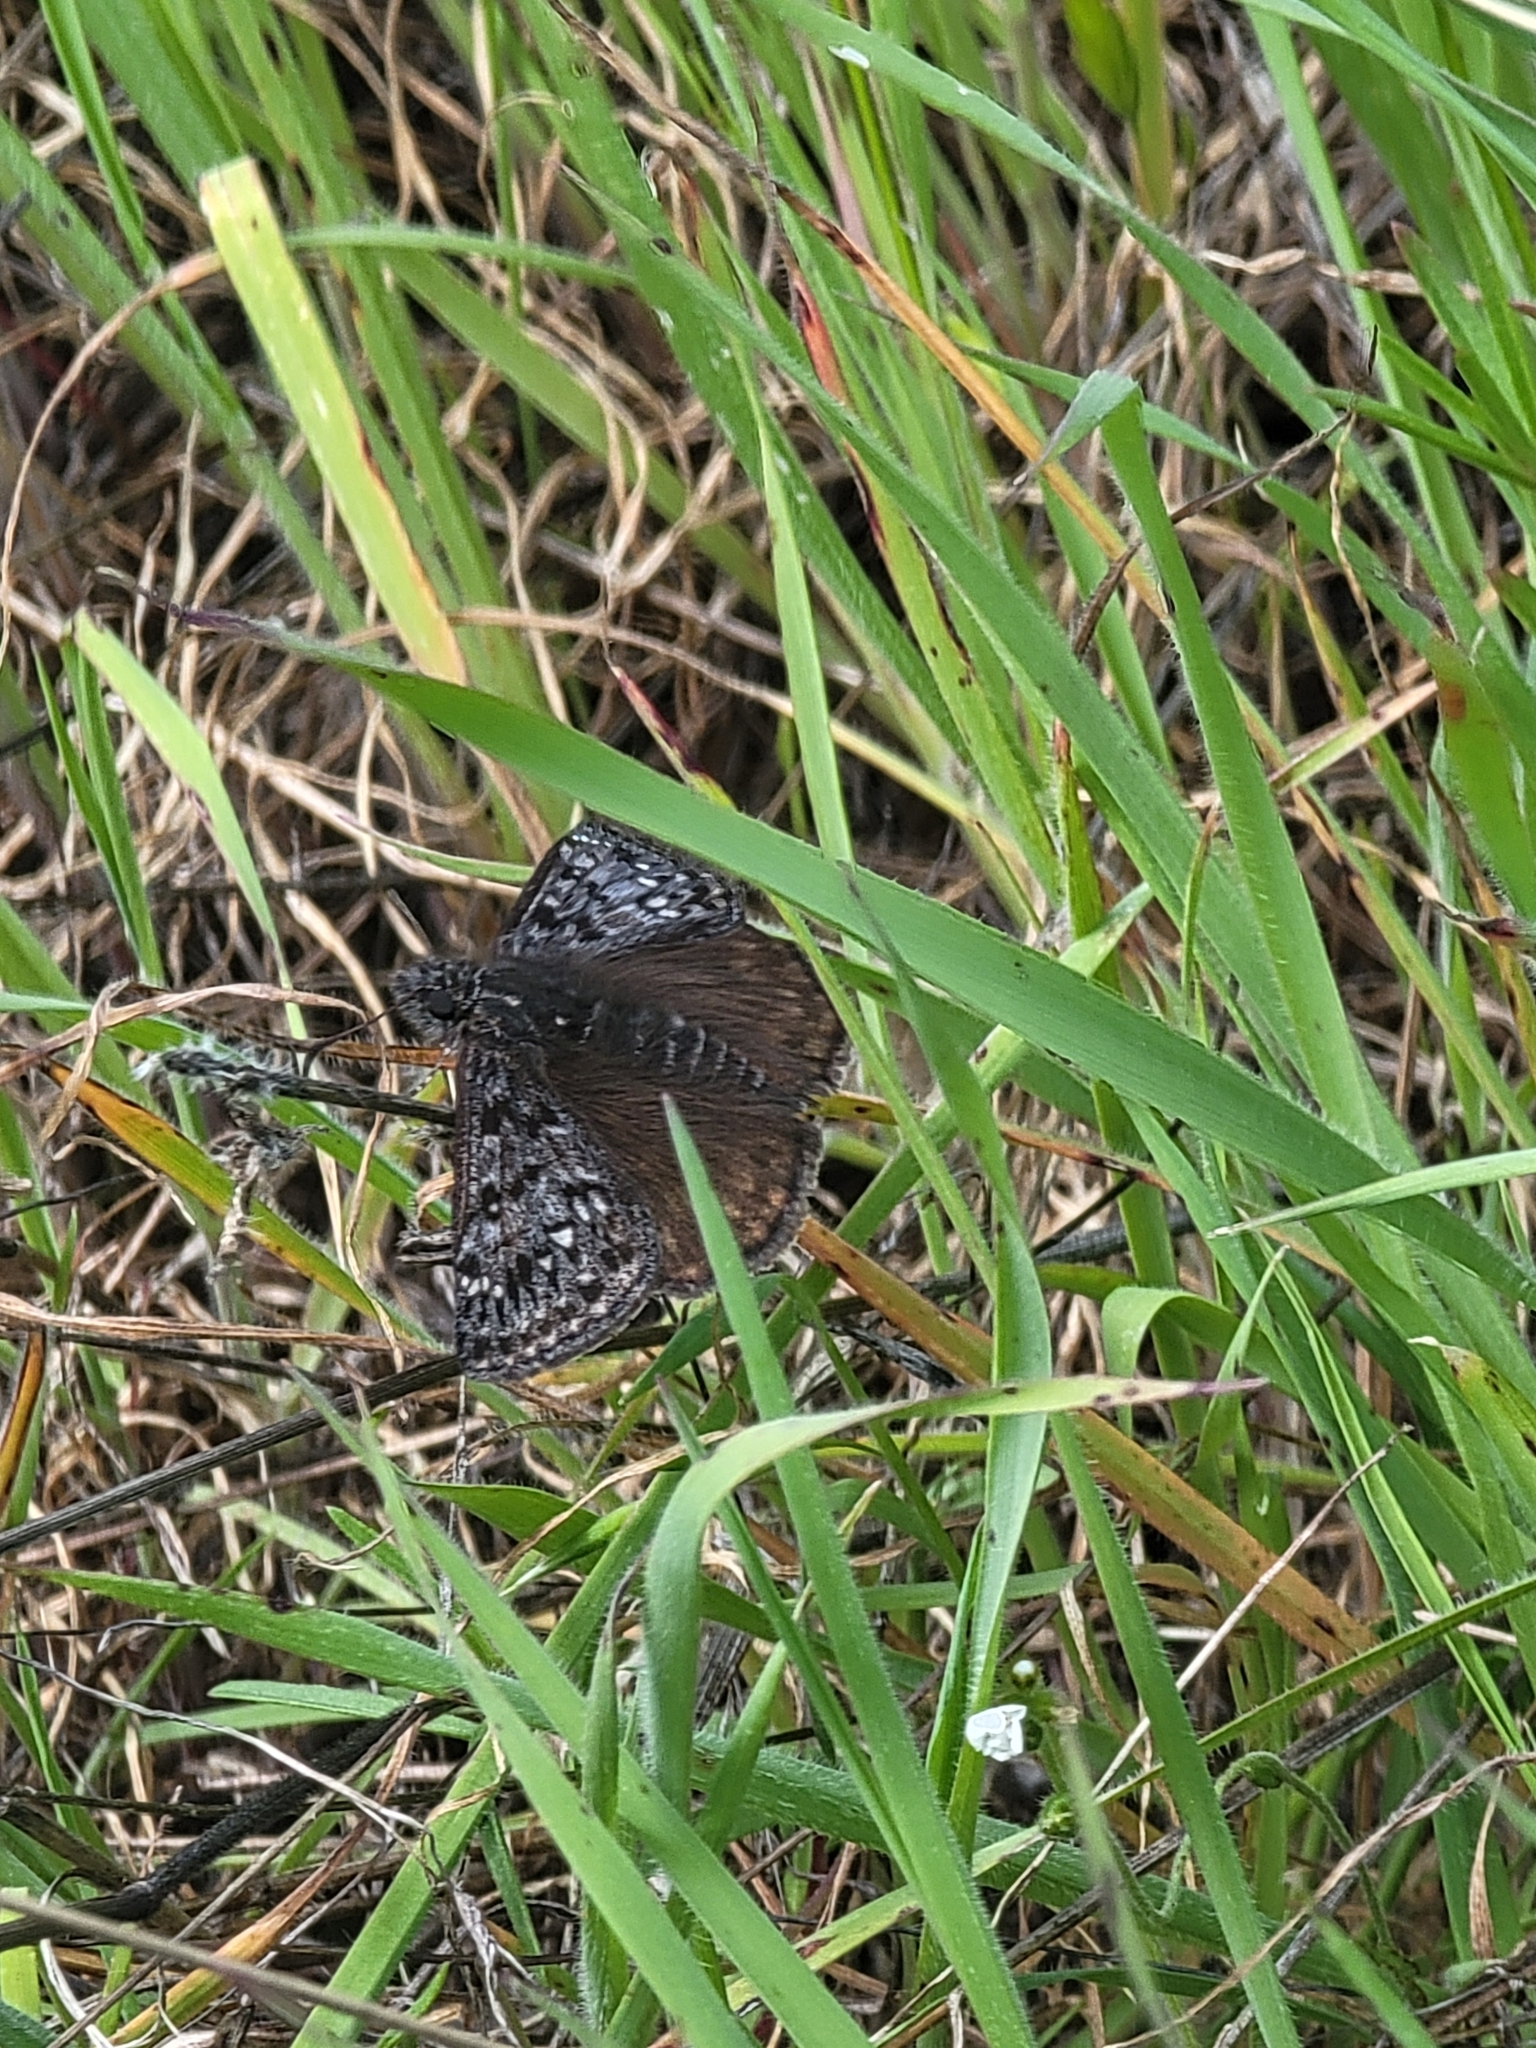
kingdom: Animalia
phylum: Arthropoda
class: Insecta
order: Lepidoptera
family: Hesperiidae
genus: Erynnis
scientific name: Erynnis propertius
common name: Propertius duskywing
